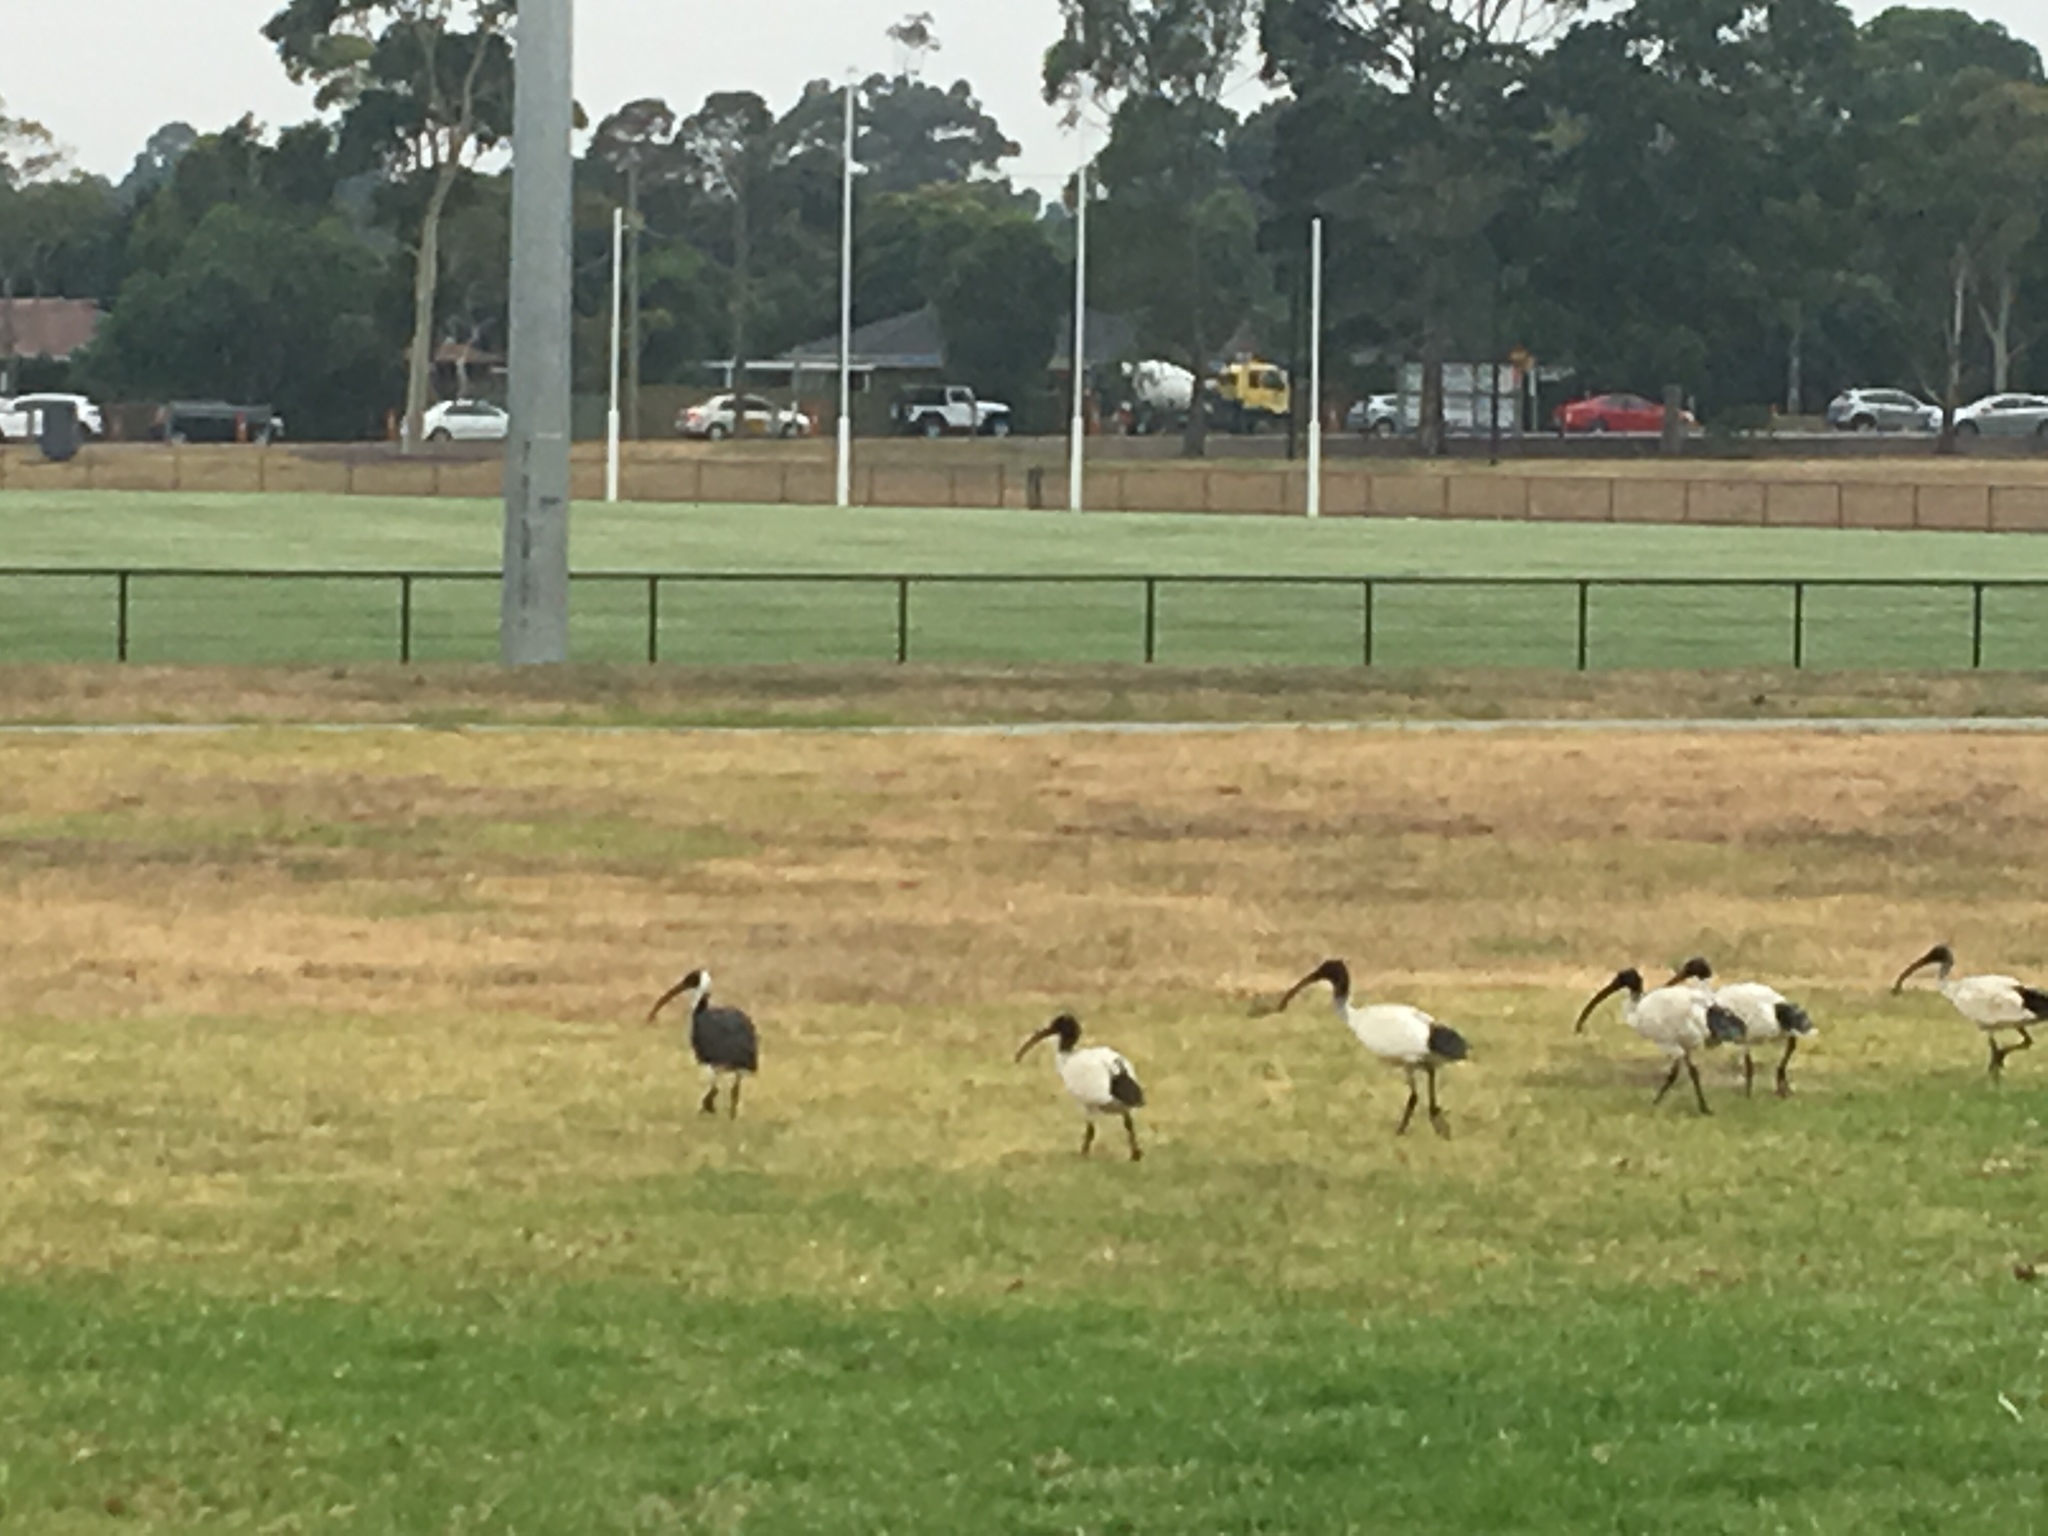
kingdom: Animalia
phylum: Chordata
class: Aves
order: Pelecaniformes
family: Threskiornithidae
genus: Threskiornis
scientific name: Threskiornis molucca
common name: Australian white ibis
